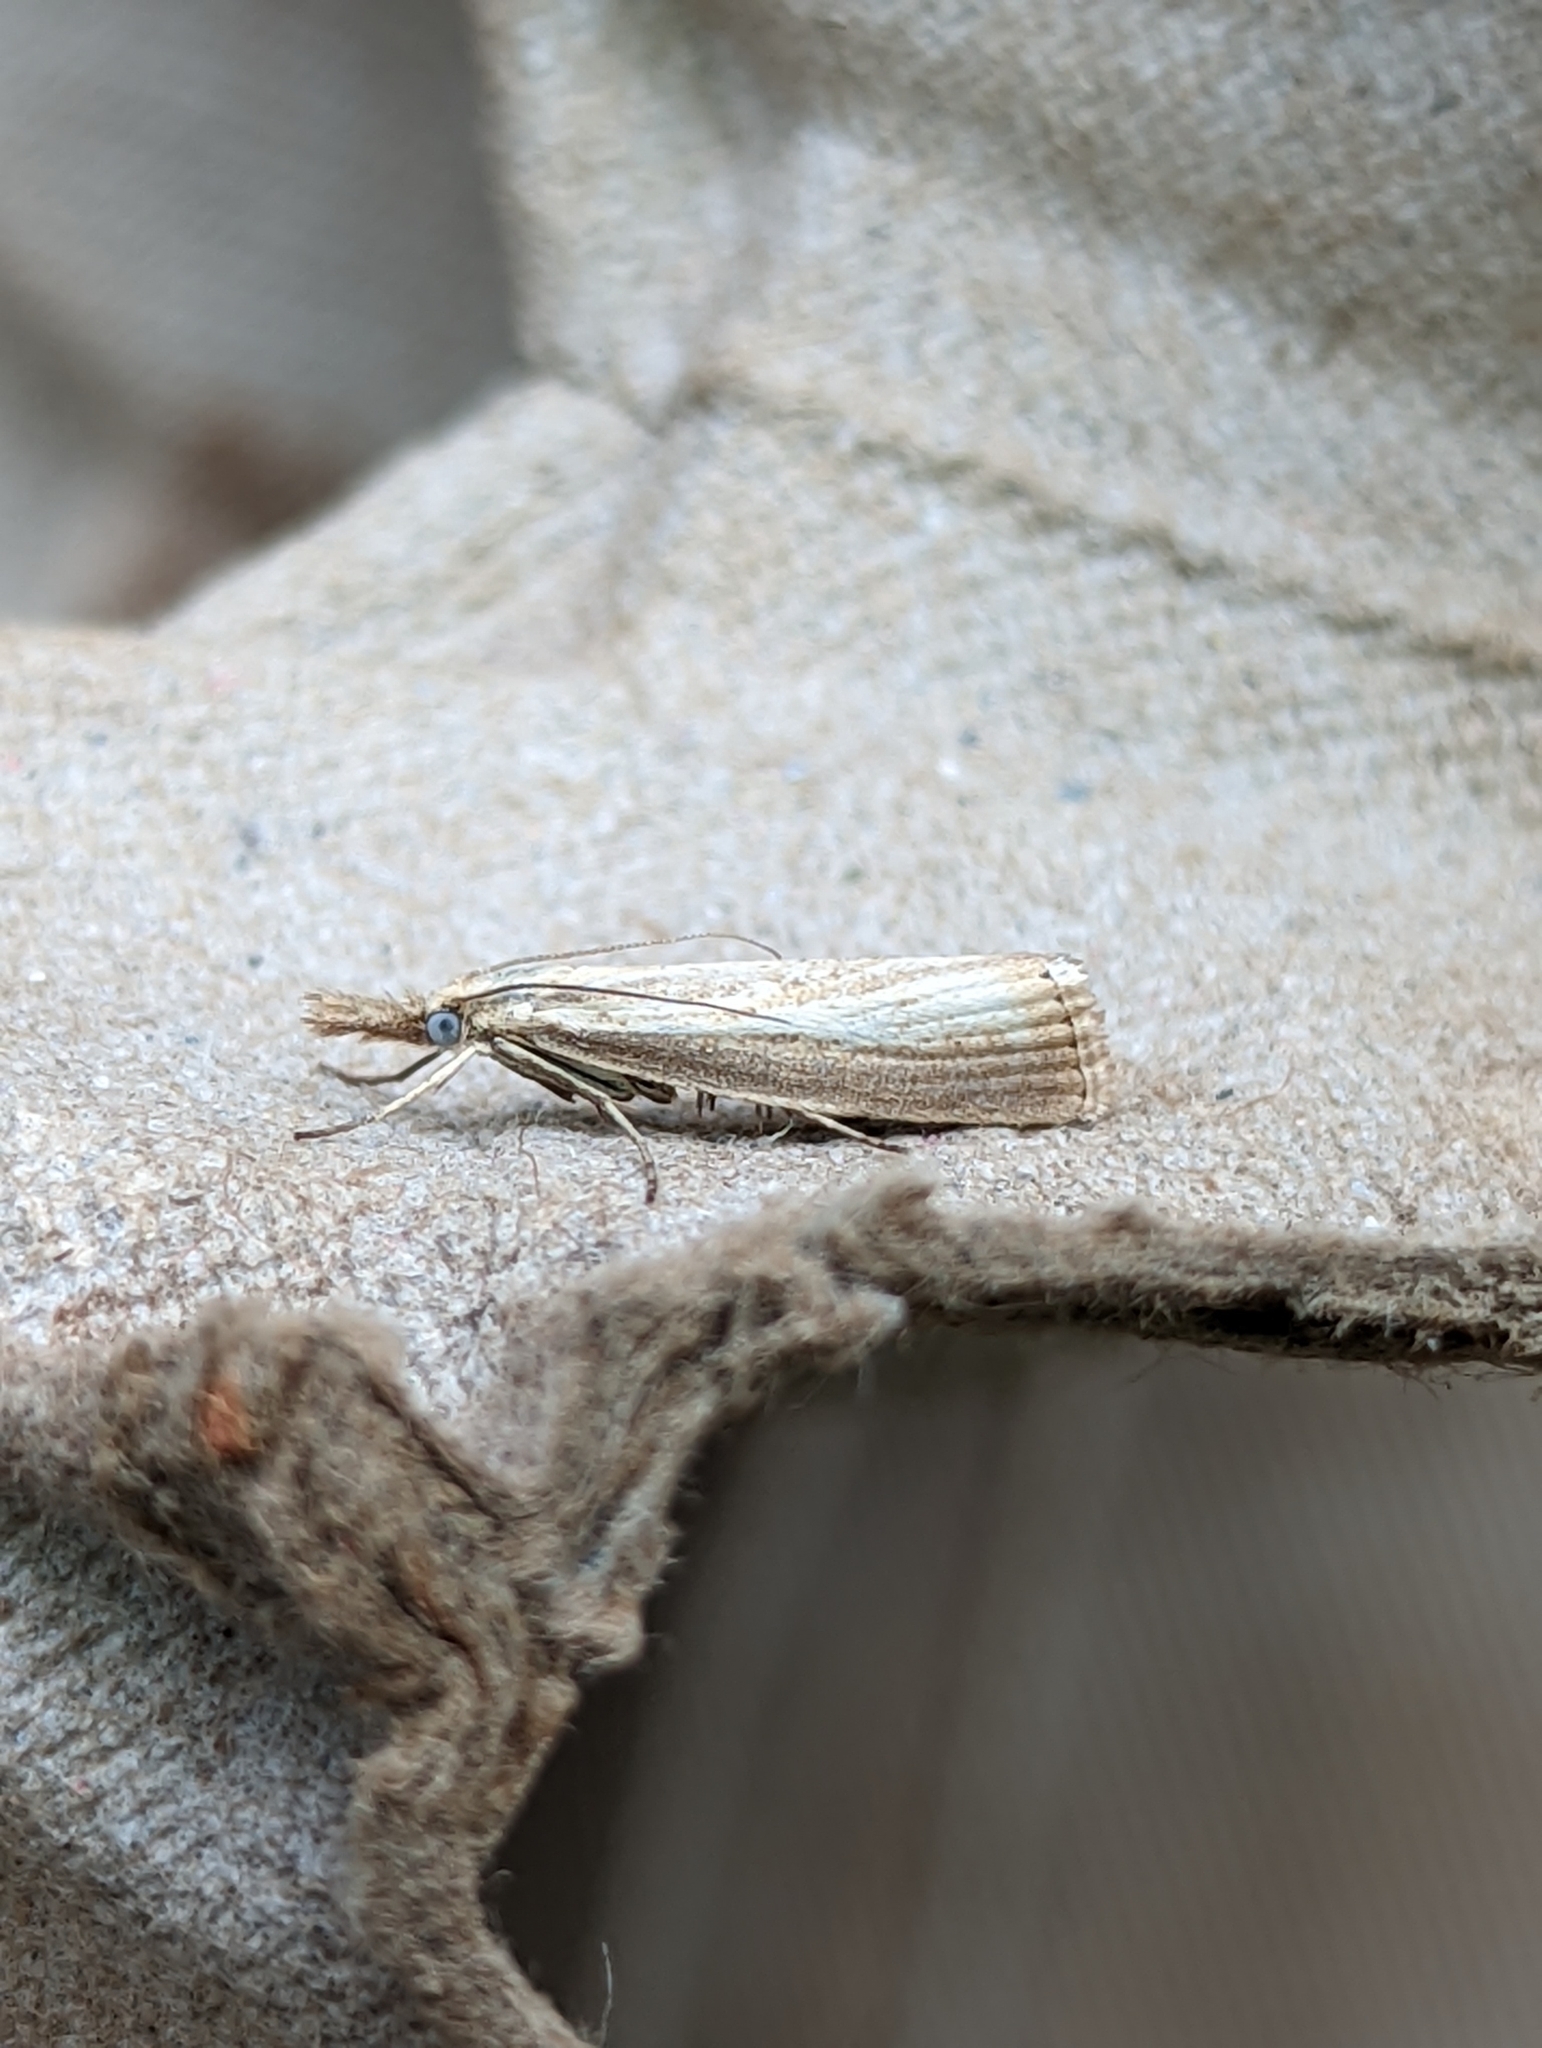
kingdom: Animalia
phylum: Arthropoda
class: Insecta
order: Lepidoptera
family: Crambidae
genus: Agriphila
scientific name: Agriphila straminella
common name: Straw grass-veneer
